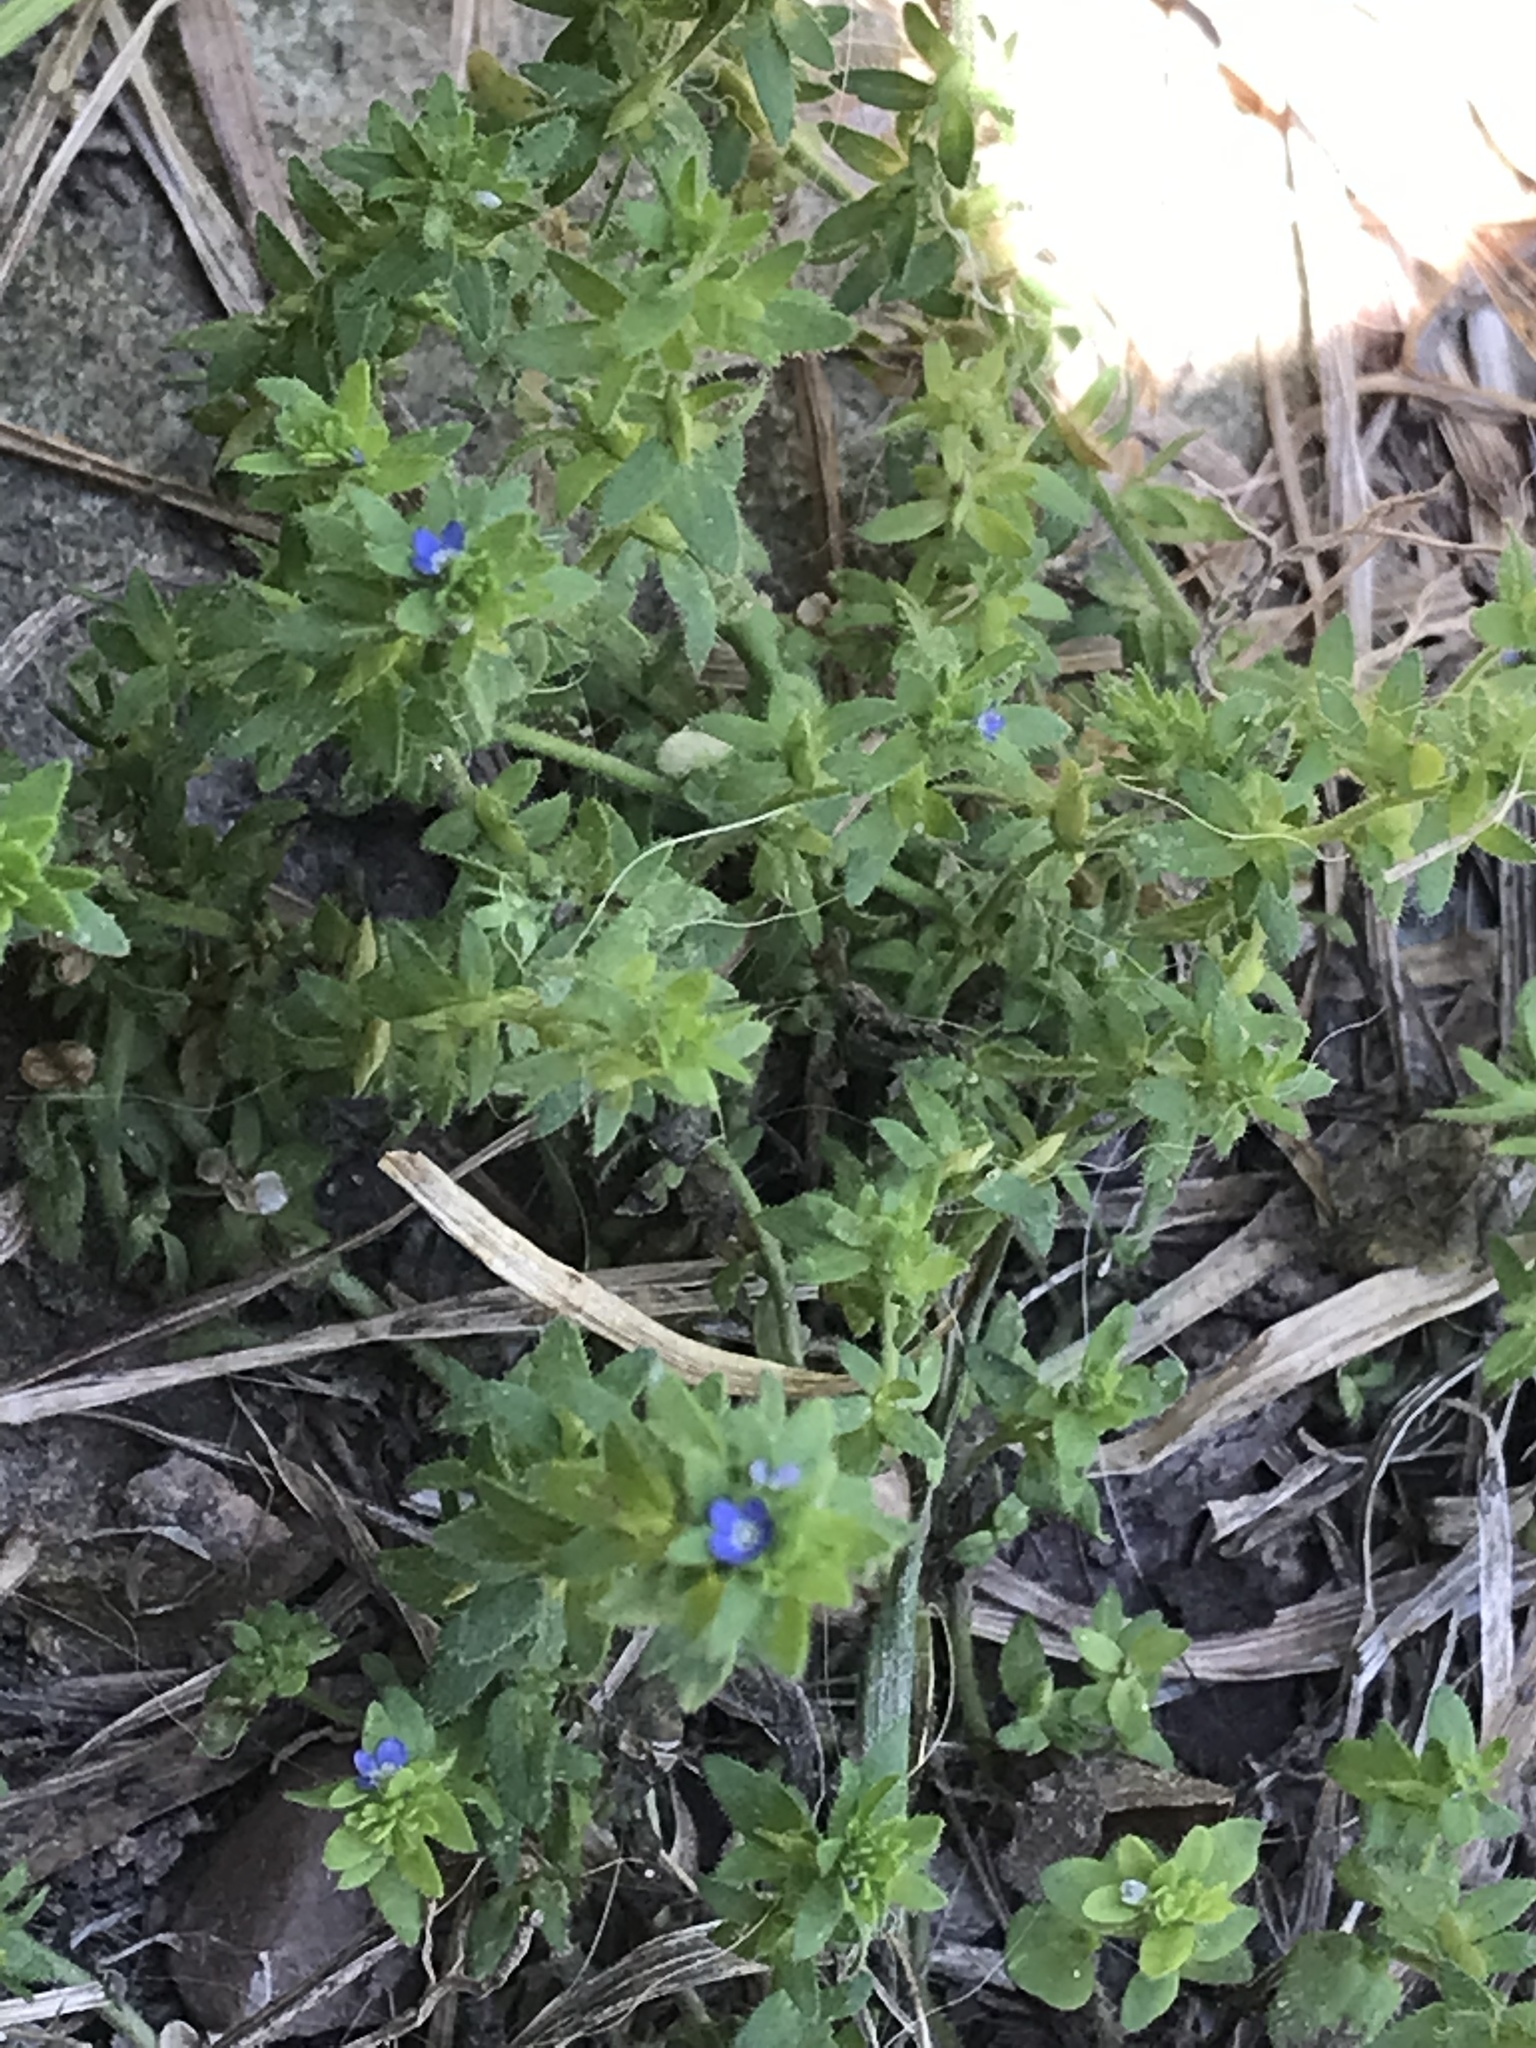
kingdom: Plantae
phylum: Tracheophyta
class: Magnoliopsida
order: Lamiales
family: Plantaginaceae
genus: Veronica
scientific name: Veronica arvensis
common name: Corn speedwell
